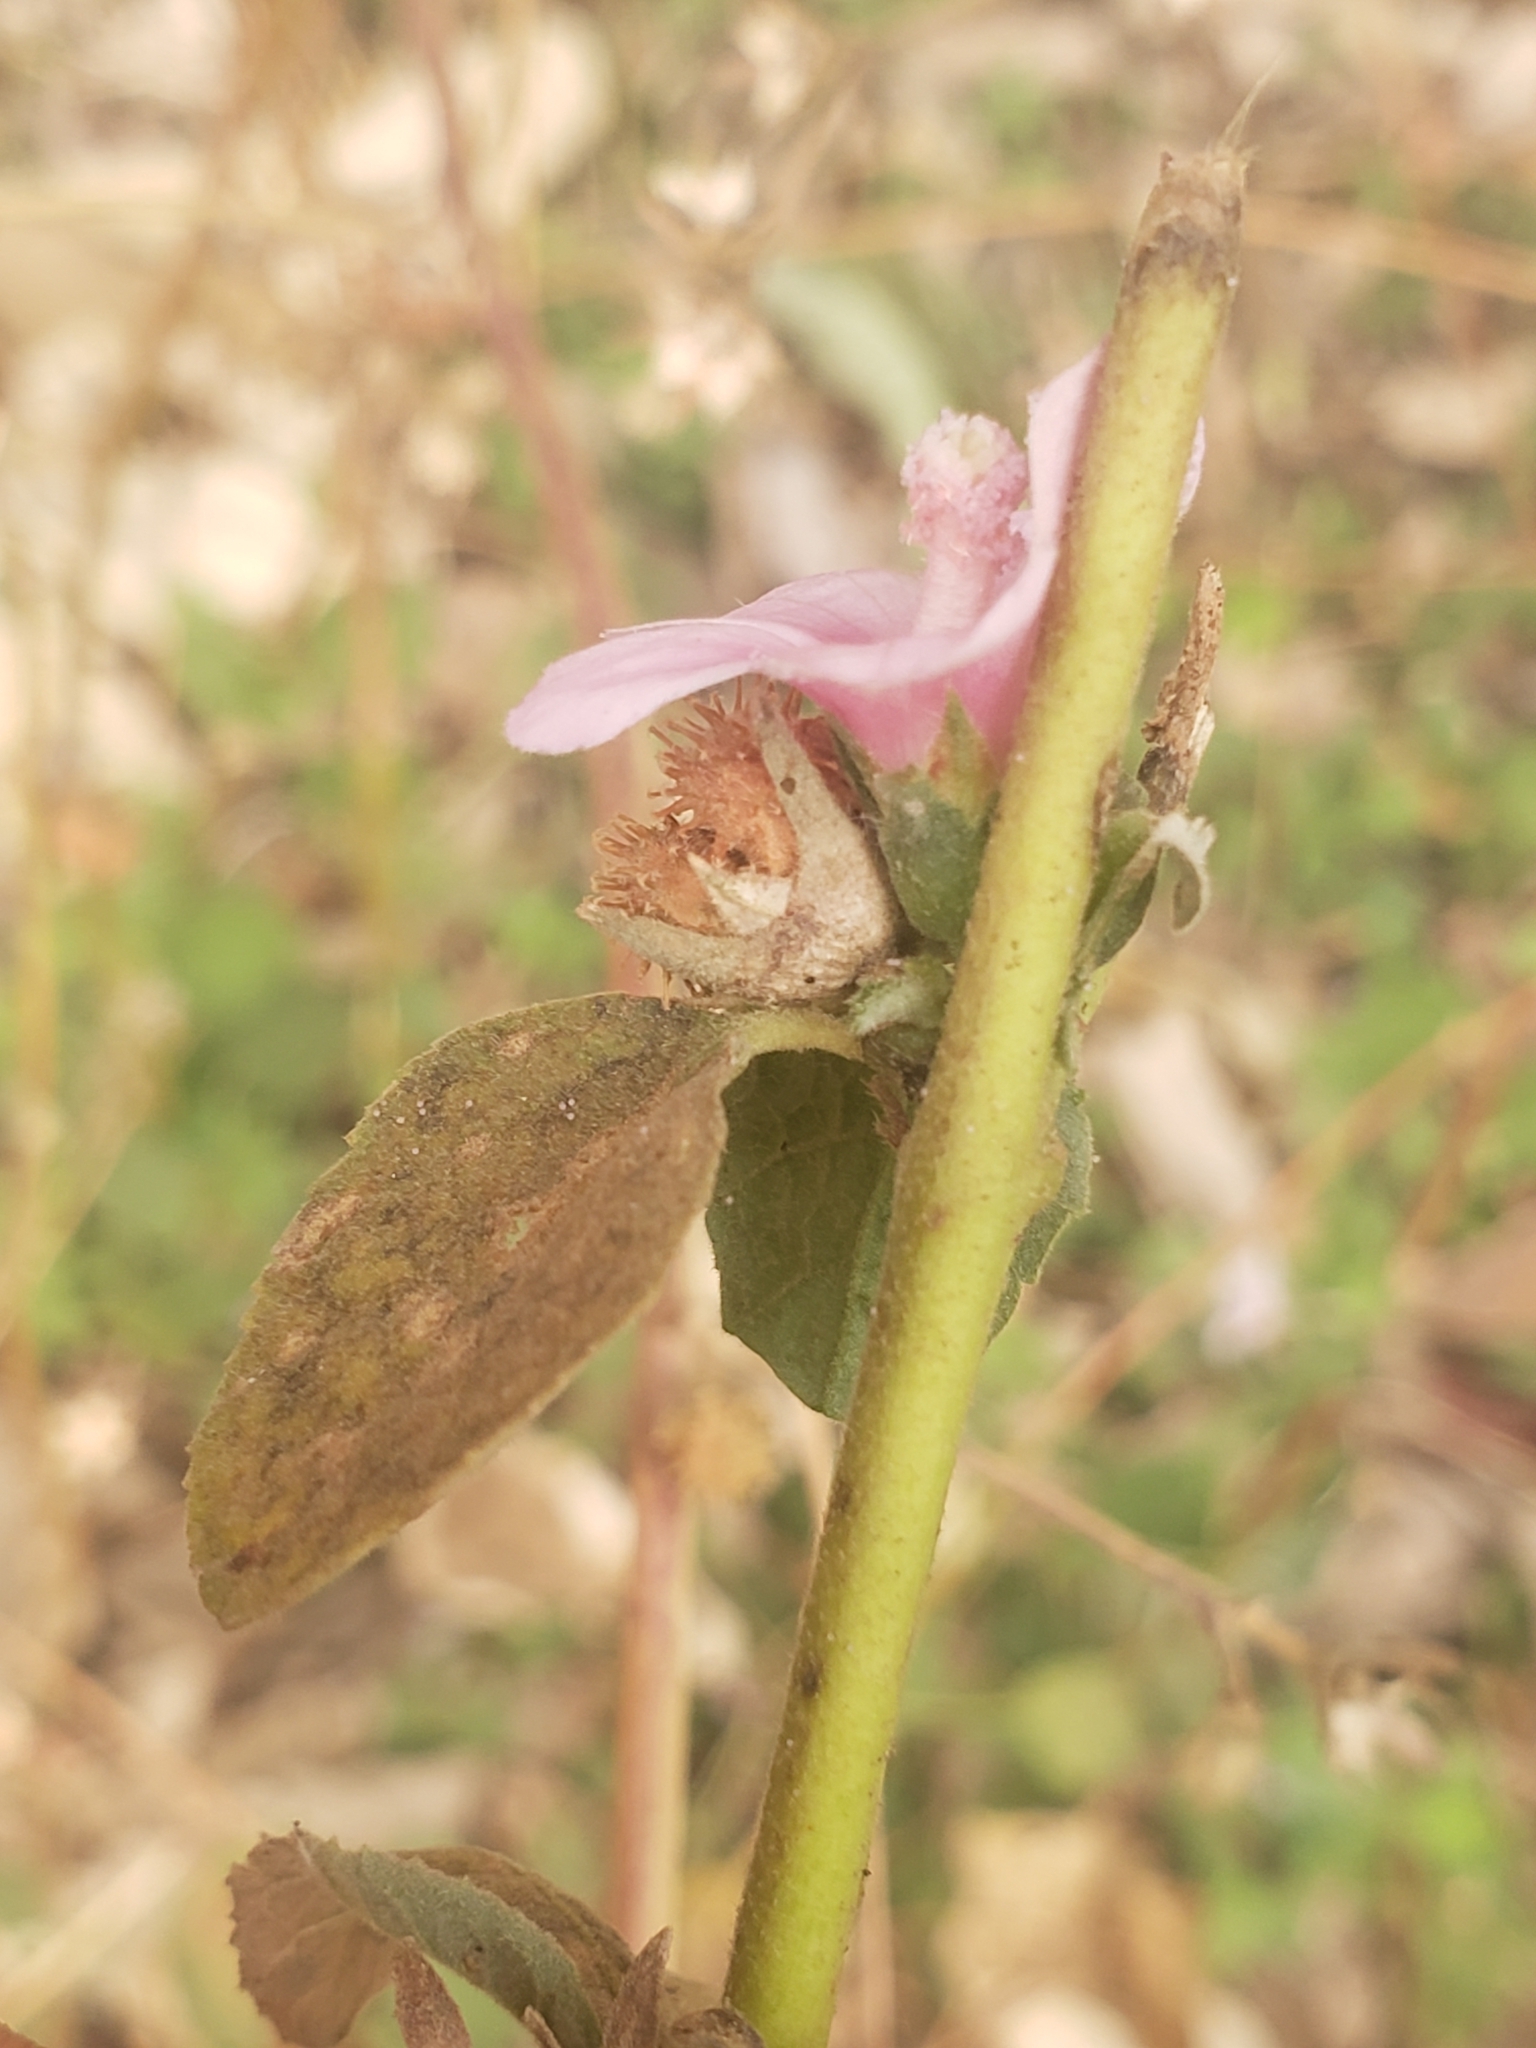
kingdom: Plantae
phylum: Tracheophyta
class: Magnoliopsida
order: Malvales
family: Malvaceae
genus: Urena
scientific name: Urena lobata
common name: Caesarweed
